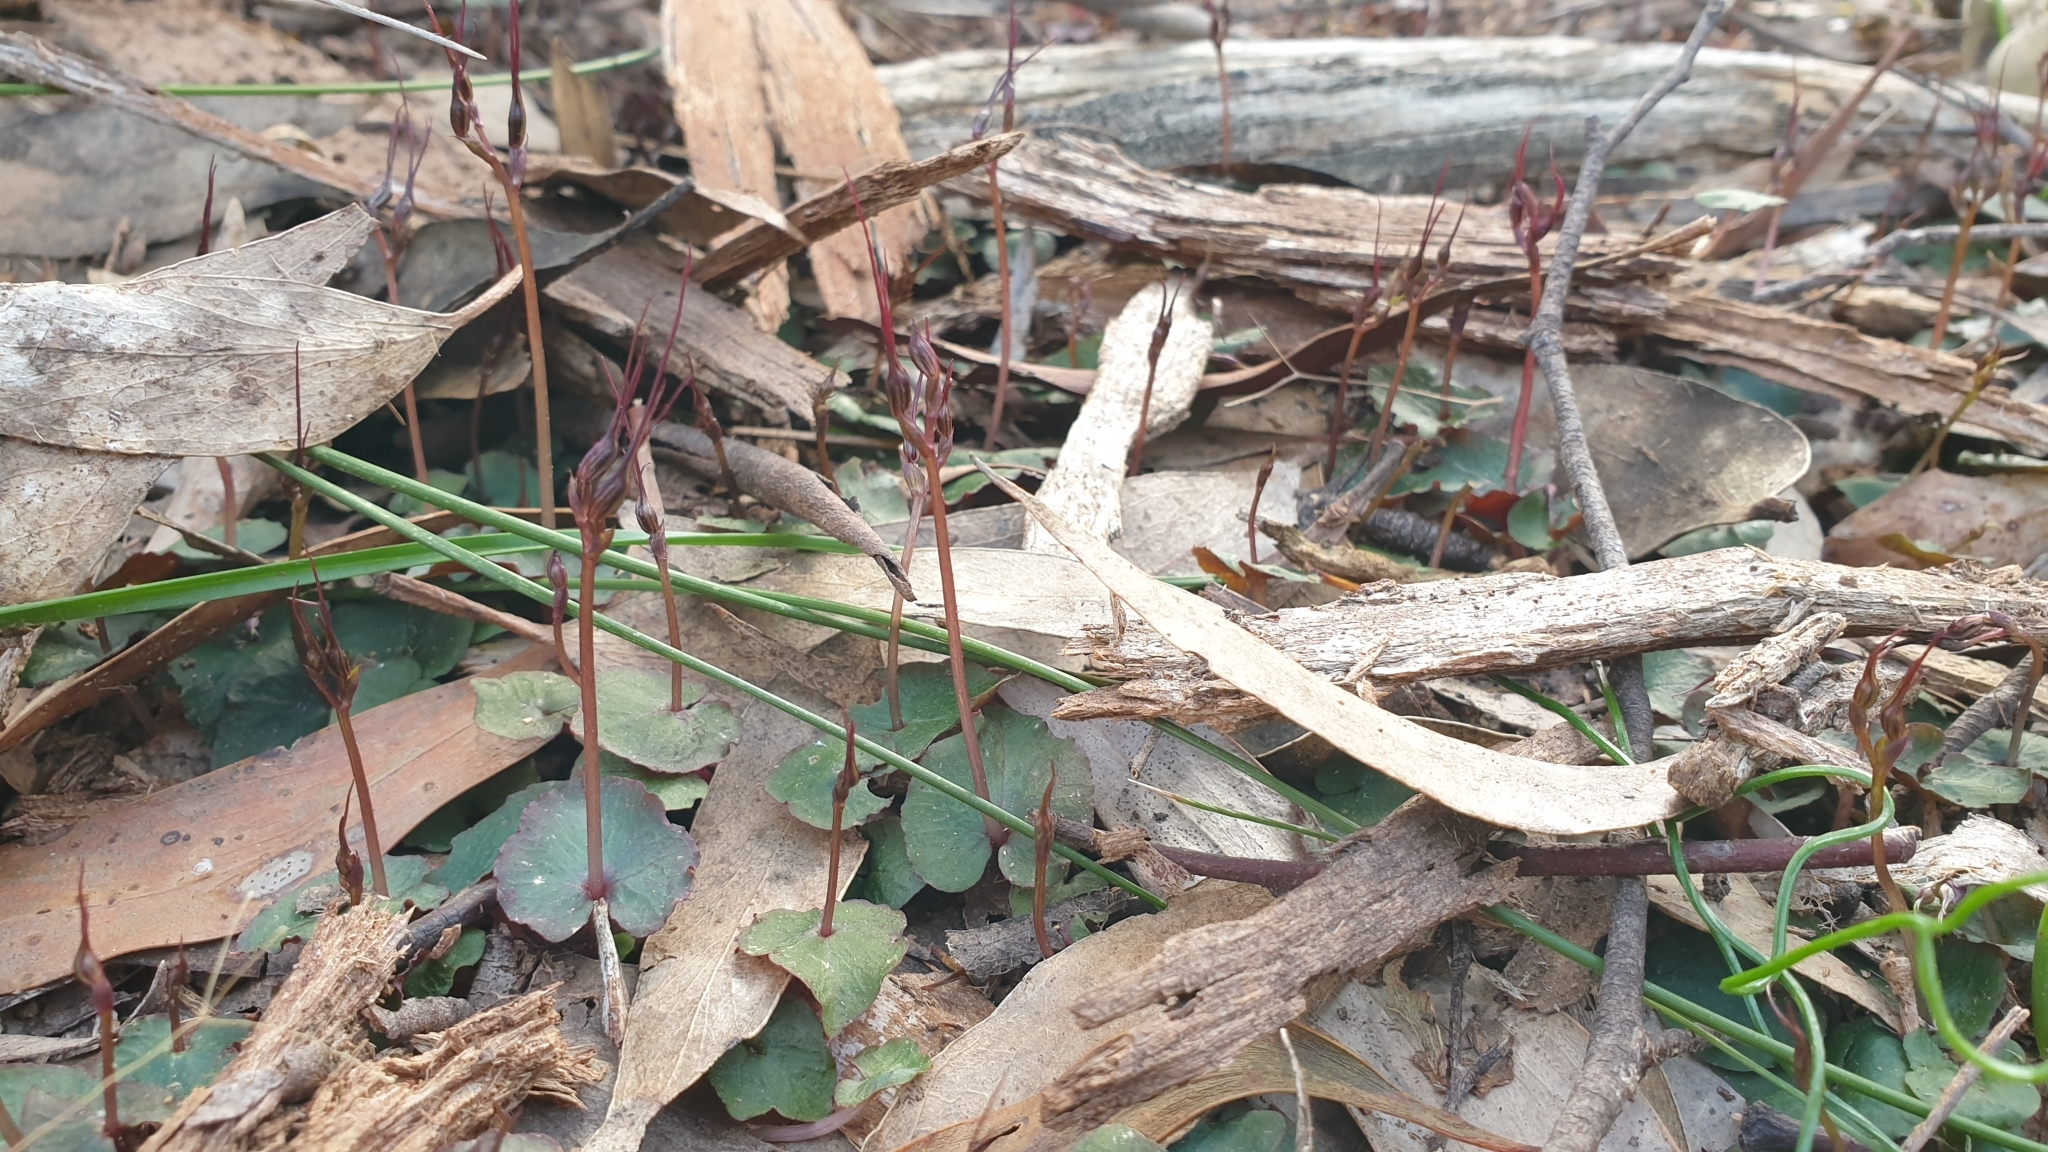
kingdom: Plantae
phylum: Tracheophyta
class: Liliopsida
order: Asparagales
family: Orchidaceae
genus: Acianthus
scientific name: Acianthus caudatus
